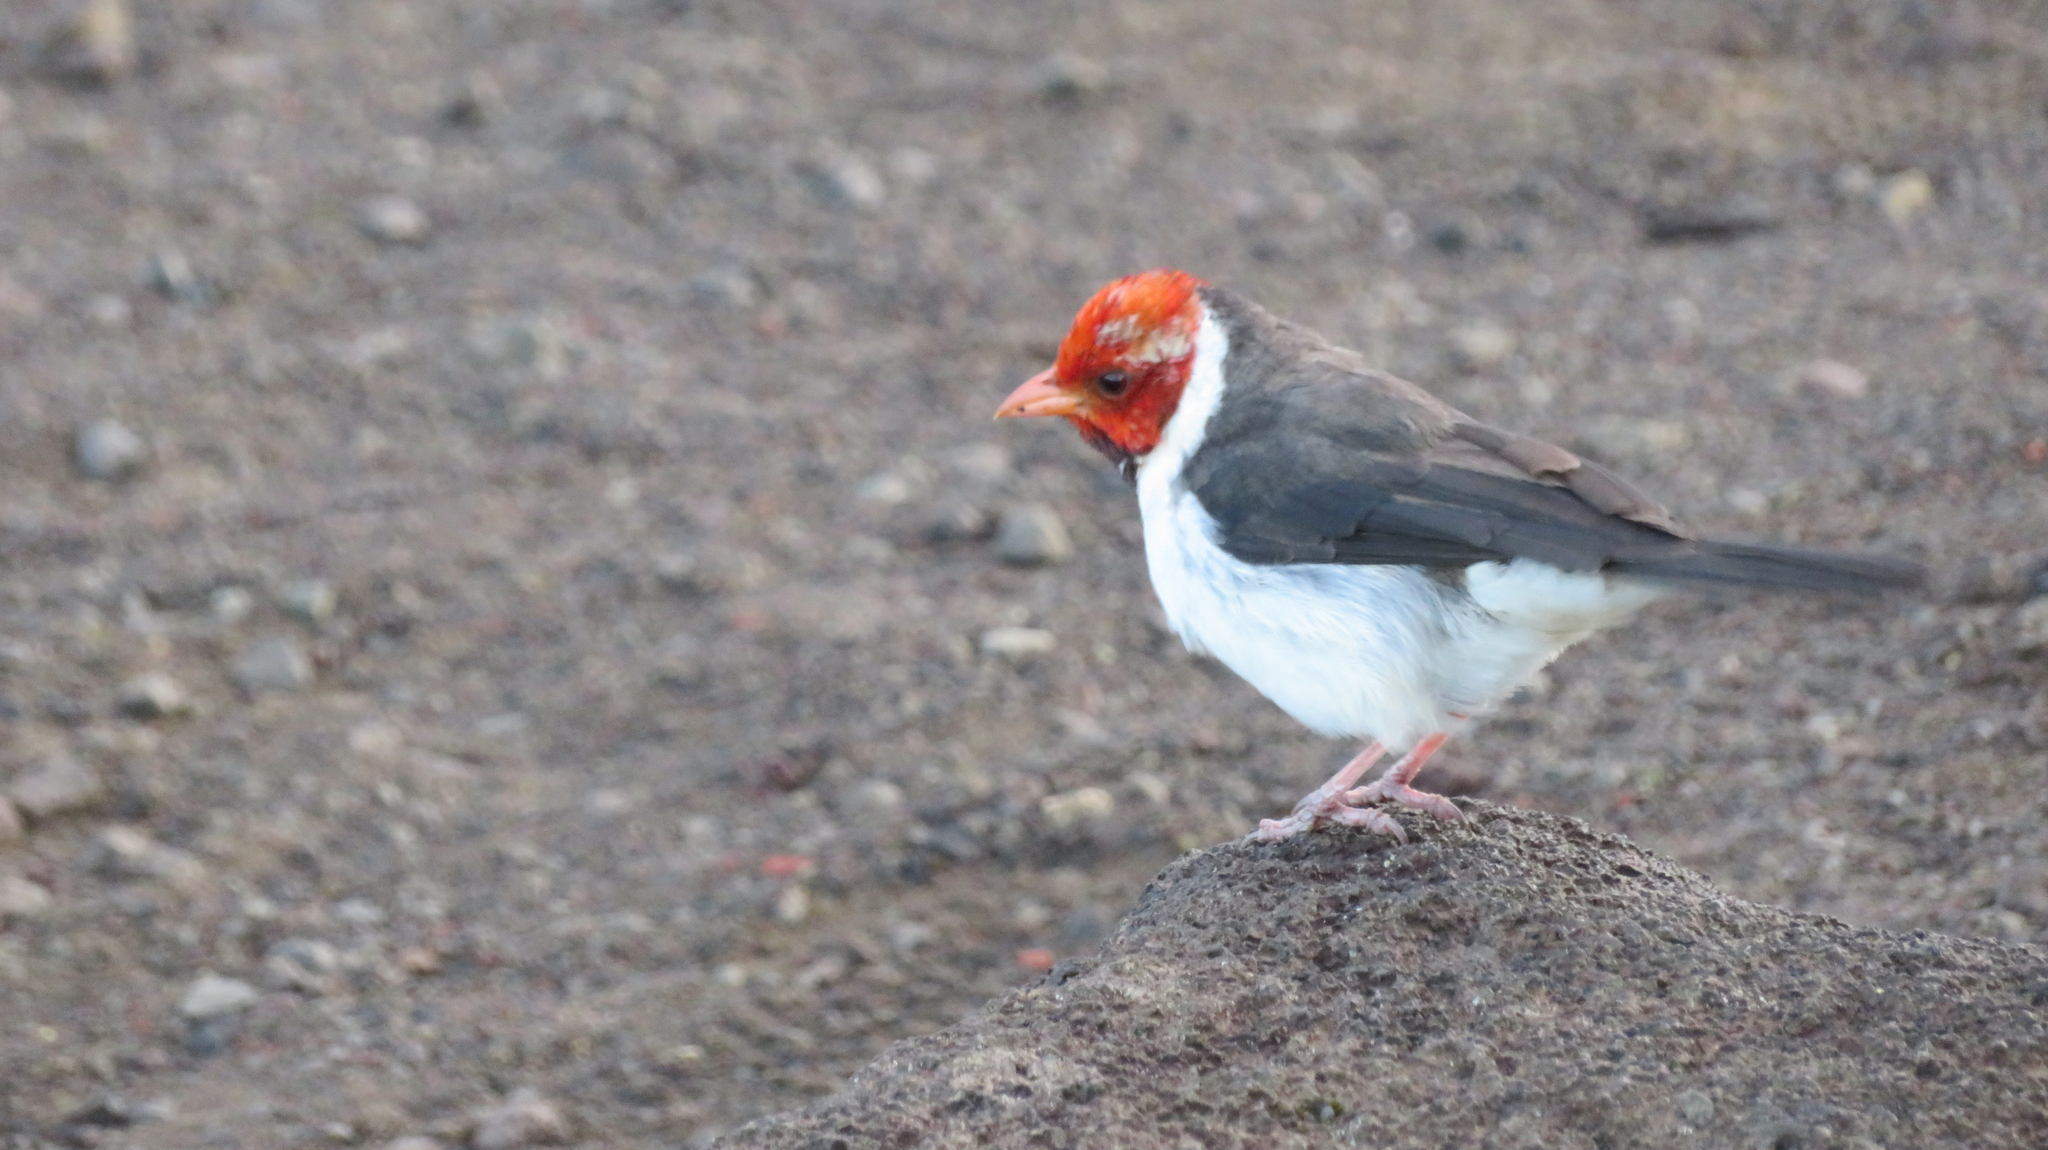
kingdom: Animalia
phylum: Chordata
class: Aves
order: Passeriformes
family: Thraupidae
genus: Paroaria
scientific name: Paroaria capitata
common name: Yellow-billed cardinal
